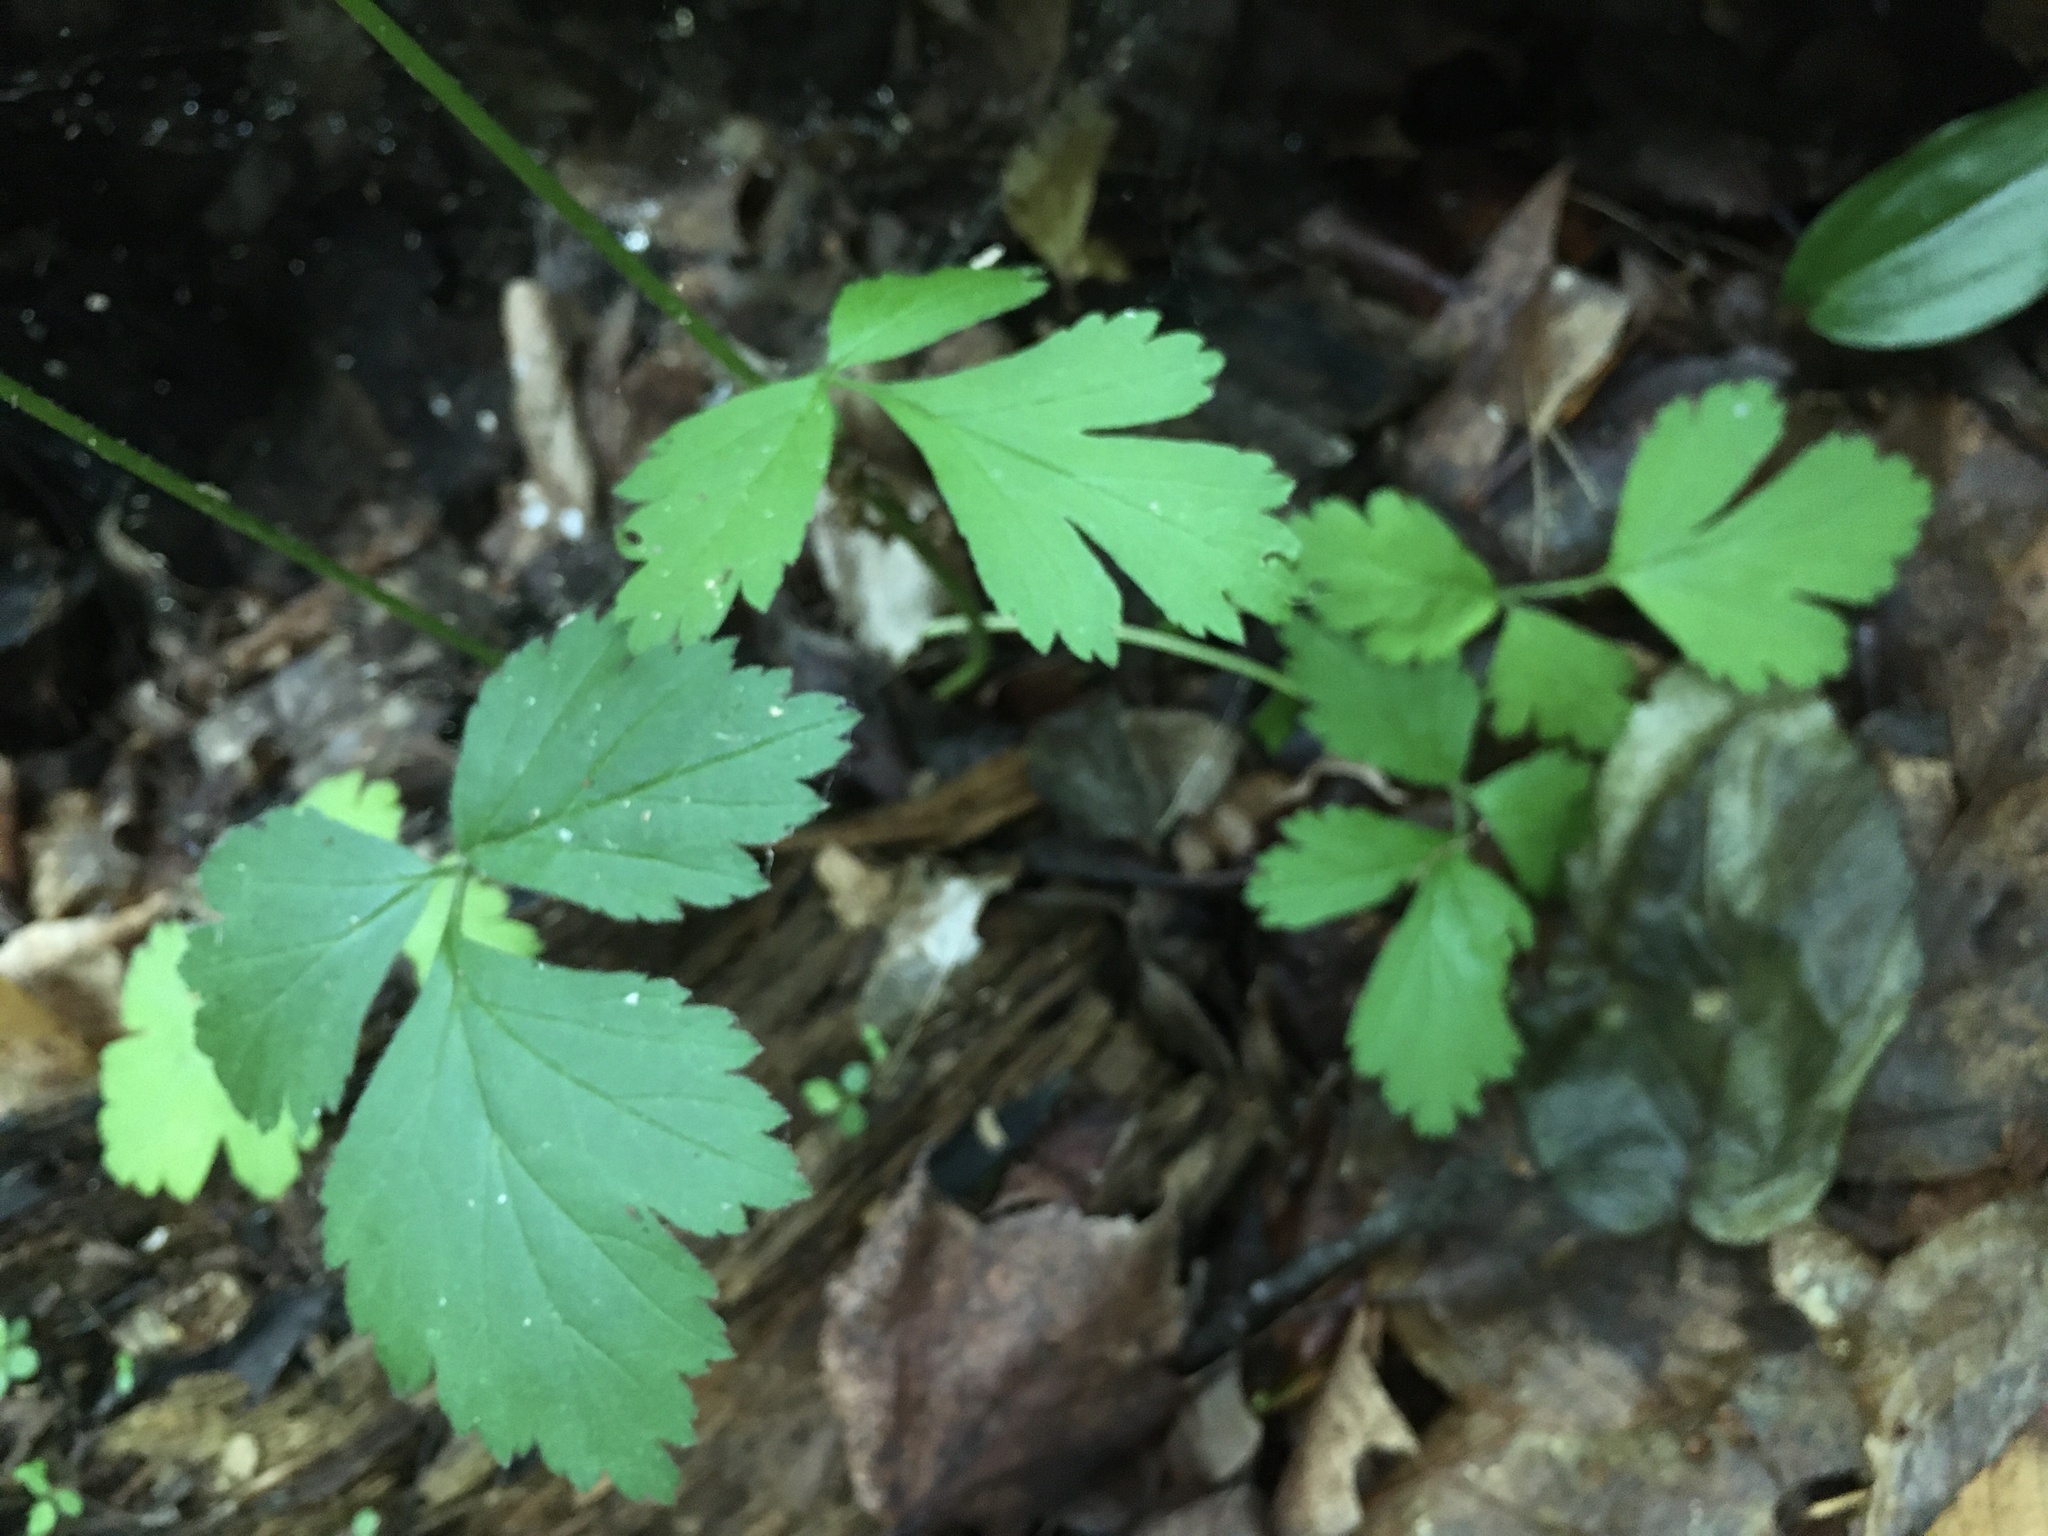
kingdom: Plantae
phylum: Tracheophyta
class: Magnoliopsida
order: Rosales
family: Rosaceae
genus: Geum
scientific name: Geum canadense
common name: White avens
